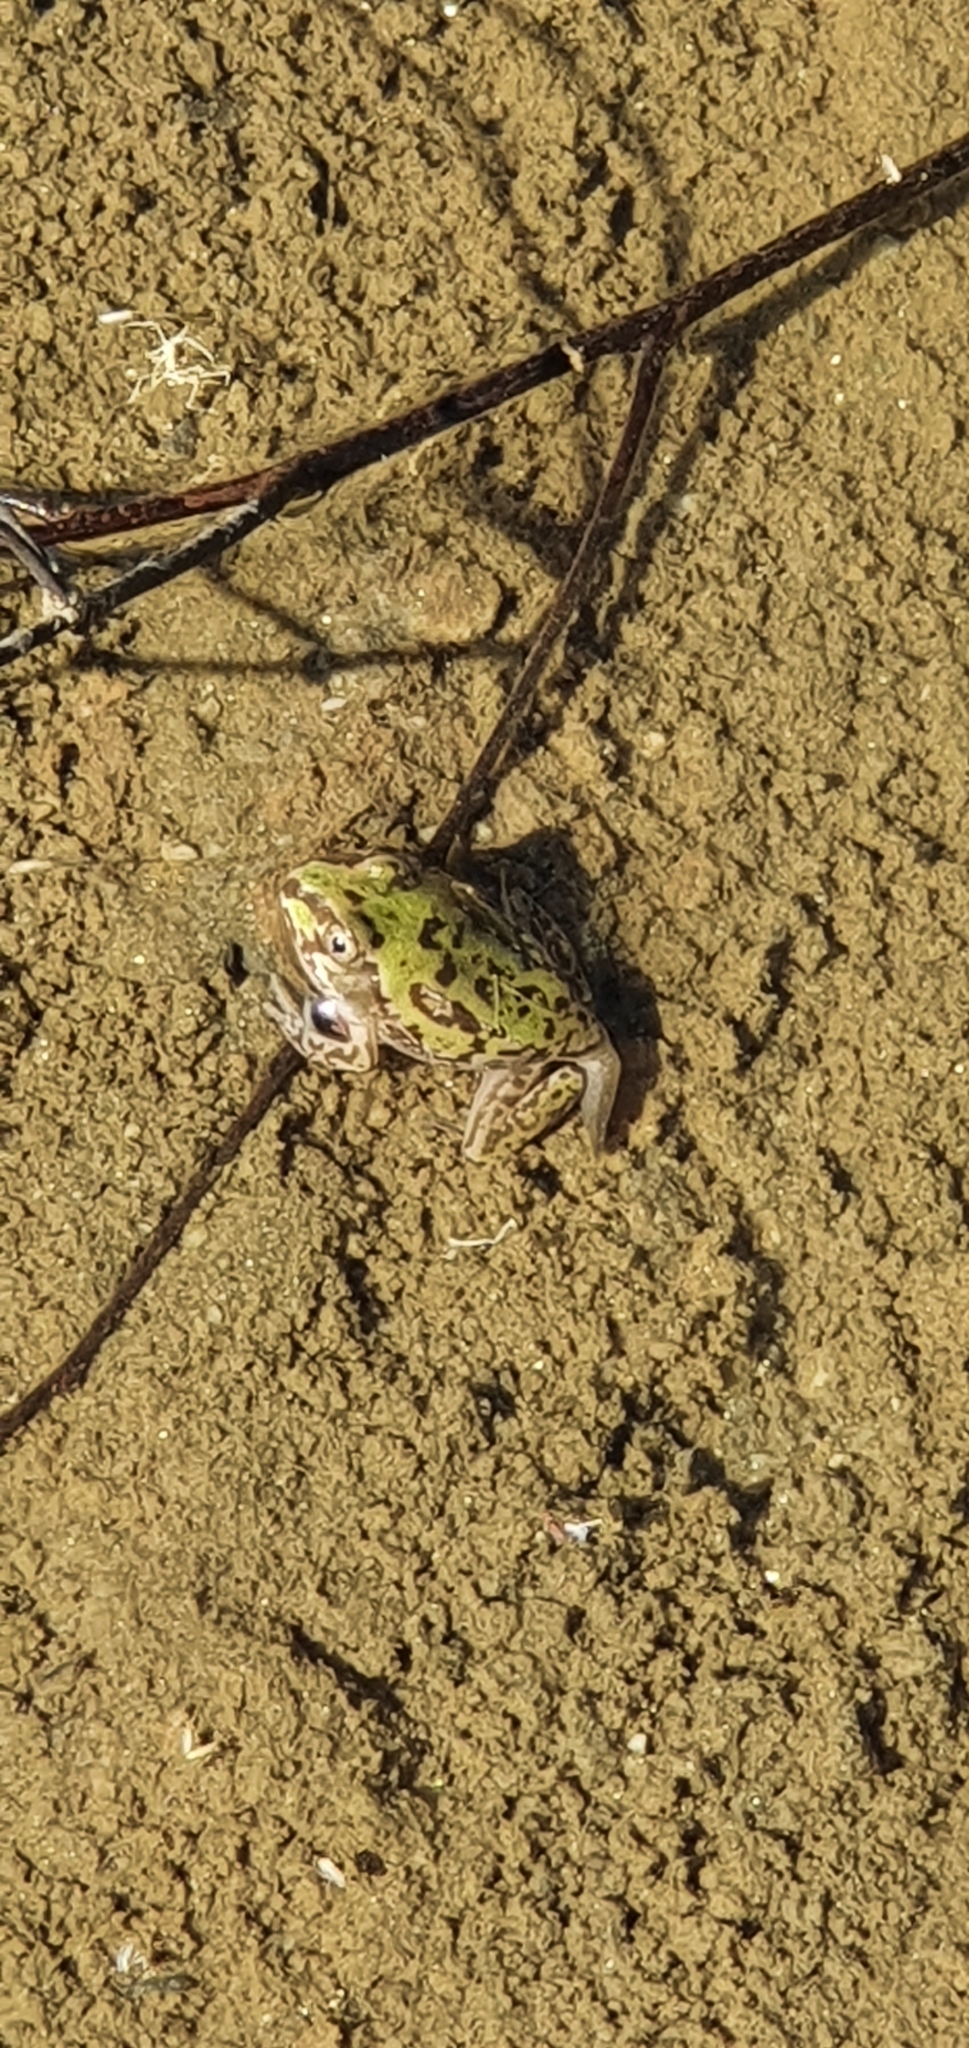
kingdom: Animalia
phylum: Chordata
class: Amphibia
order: Anura
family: Pelodryadidae
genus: Ranoidea
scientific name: Ranoidea novaehollandiae
